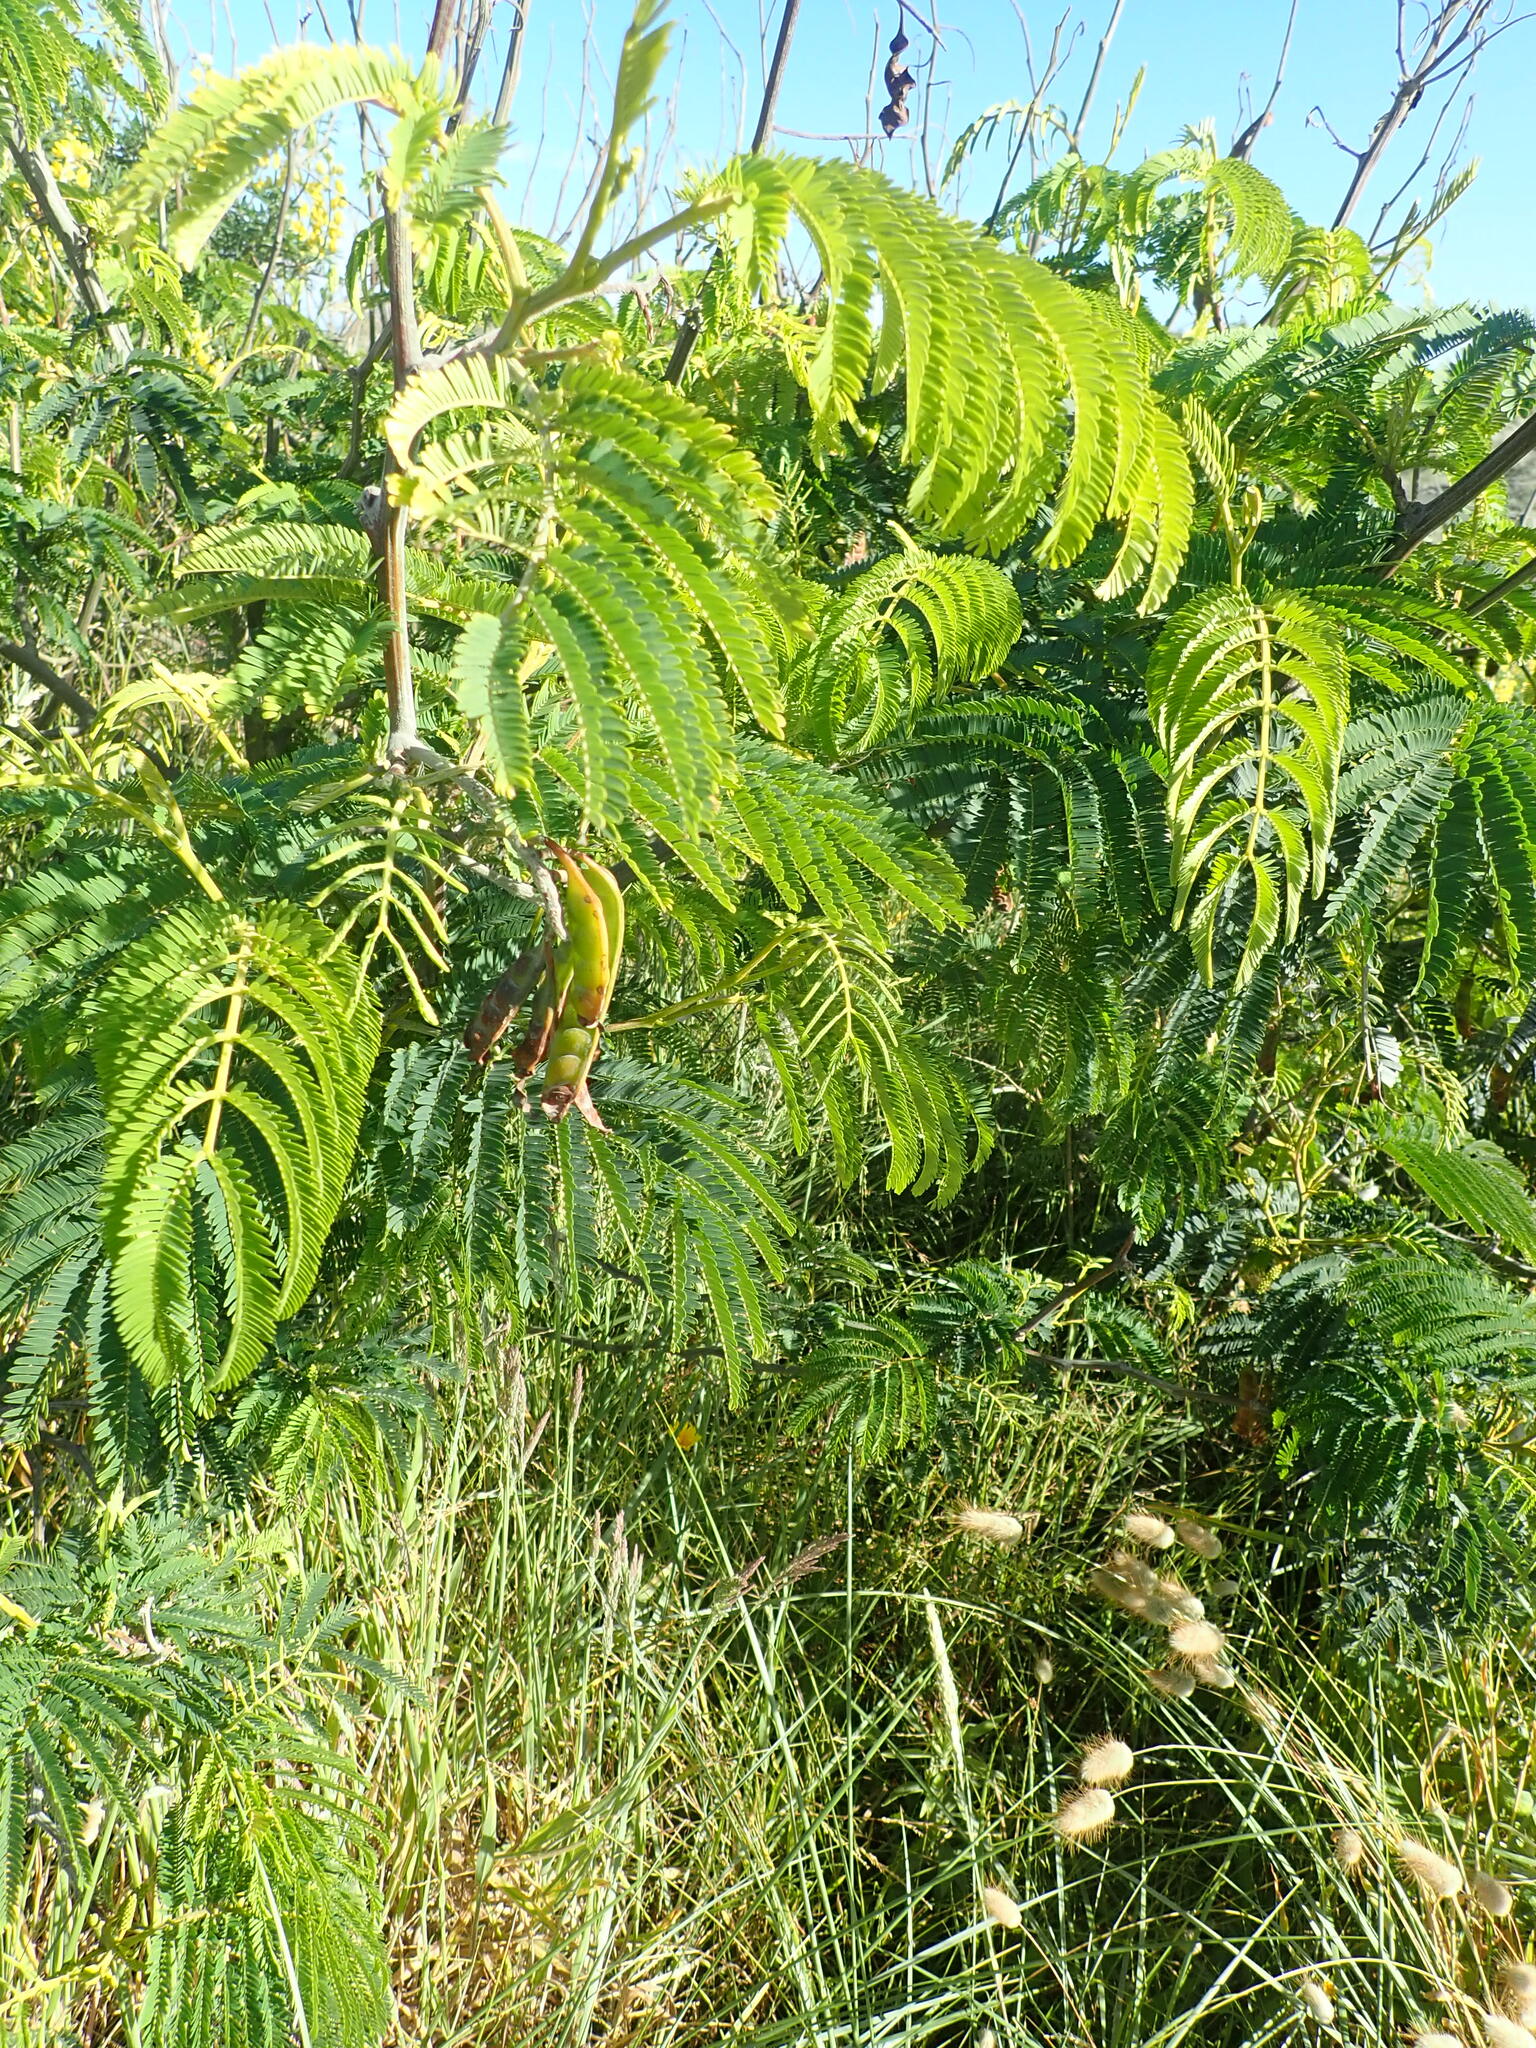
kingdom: Plantae
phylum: Tracheophyta
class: Magnoliopsida
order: Fabales
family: Fabaceae
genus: Paraserianthes
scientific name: Paraserianthes lophantha
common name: Plume albizia
